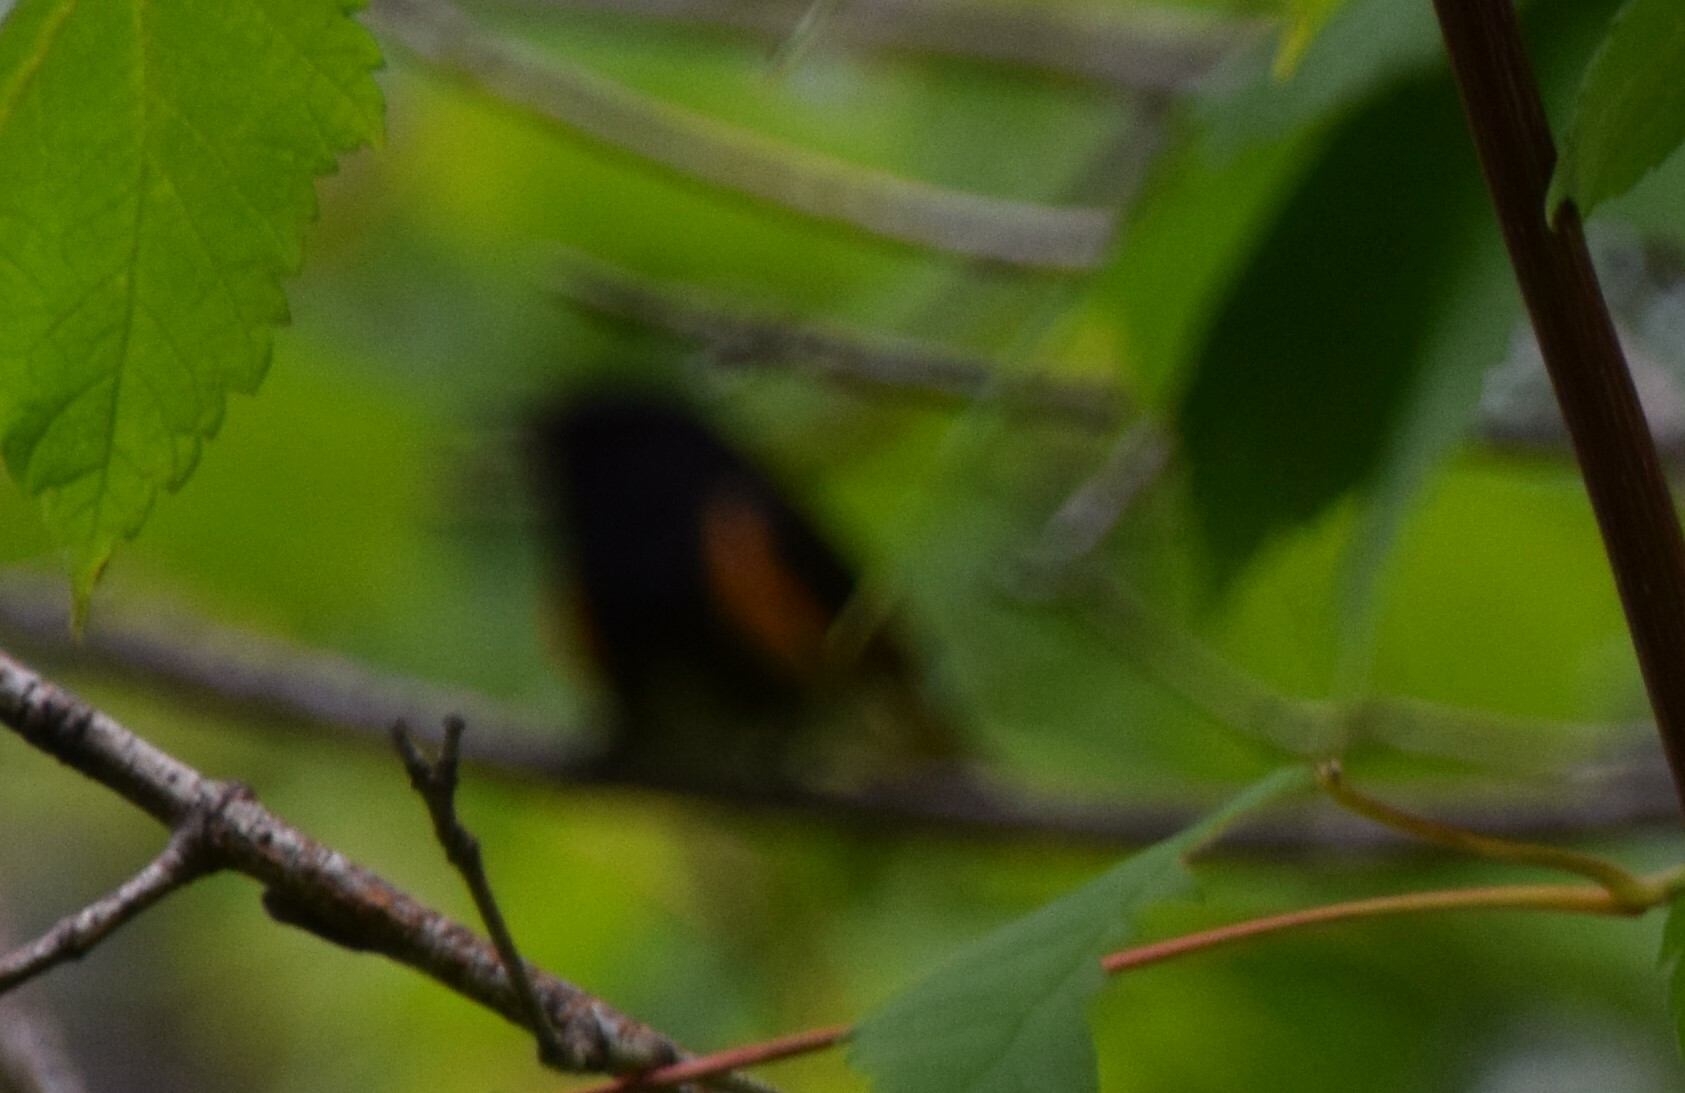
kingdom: Animalia
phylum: Chordata
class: Aves
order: Passeriformes
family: Parulidae
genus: Setophaga
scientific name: Setophaga ruticilla
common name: American redstart
